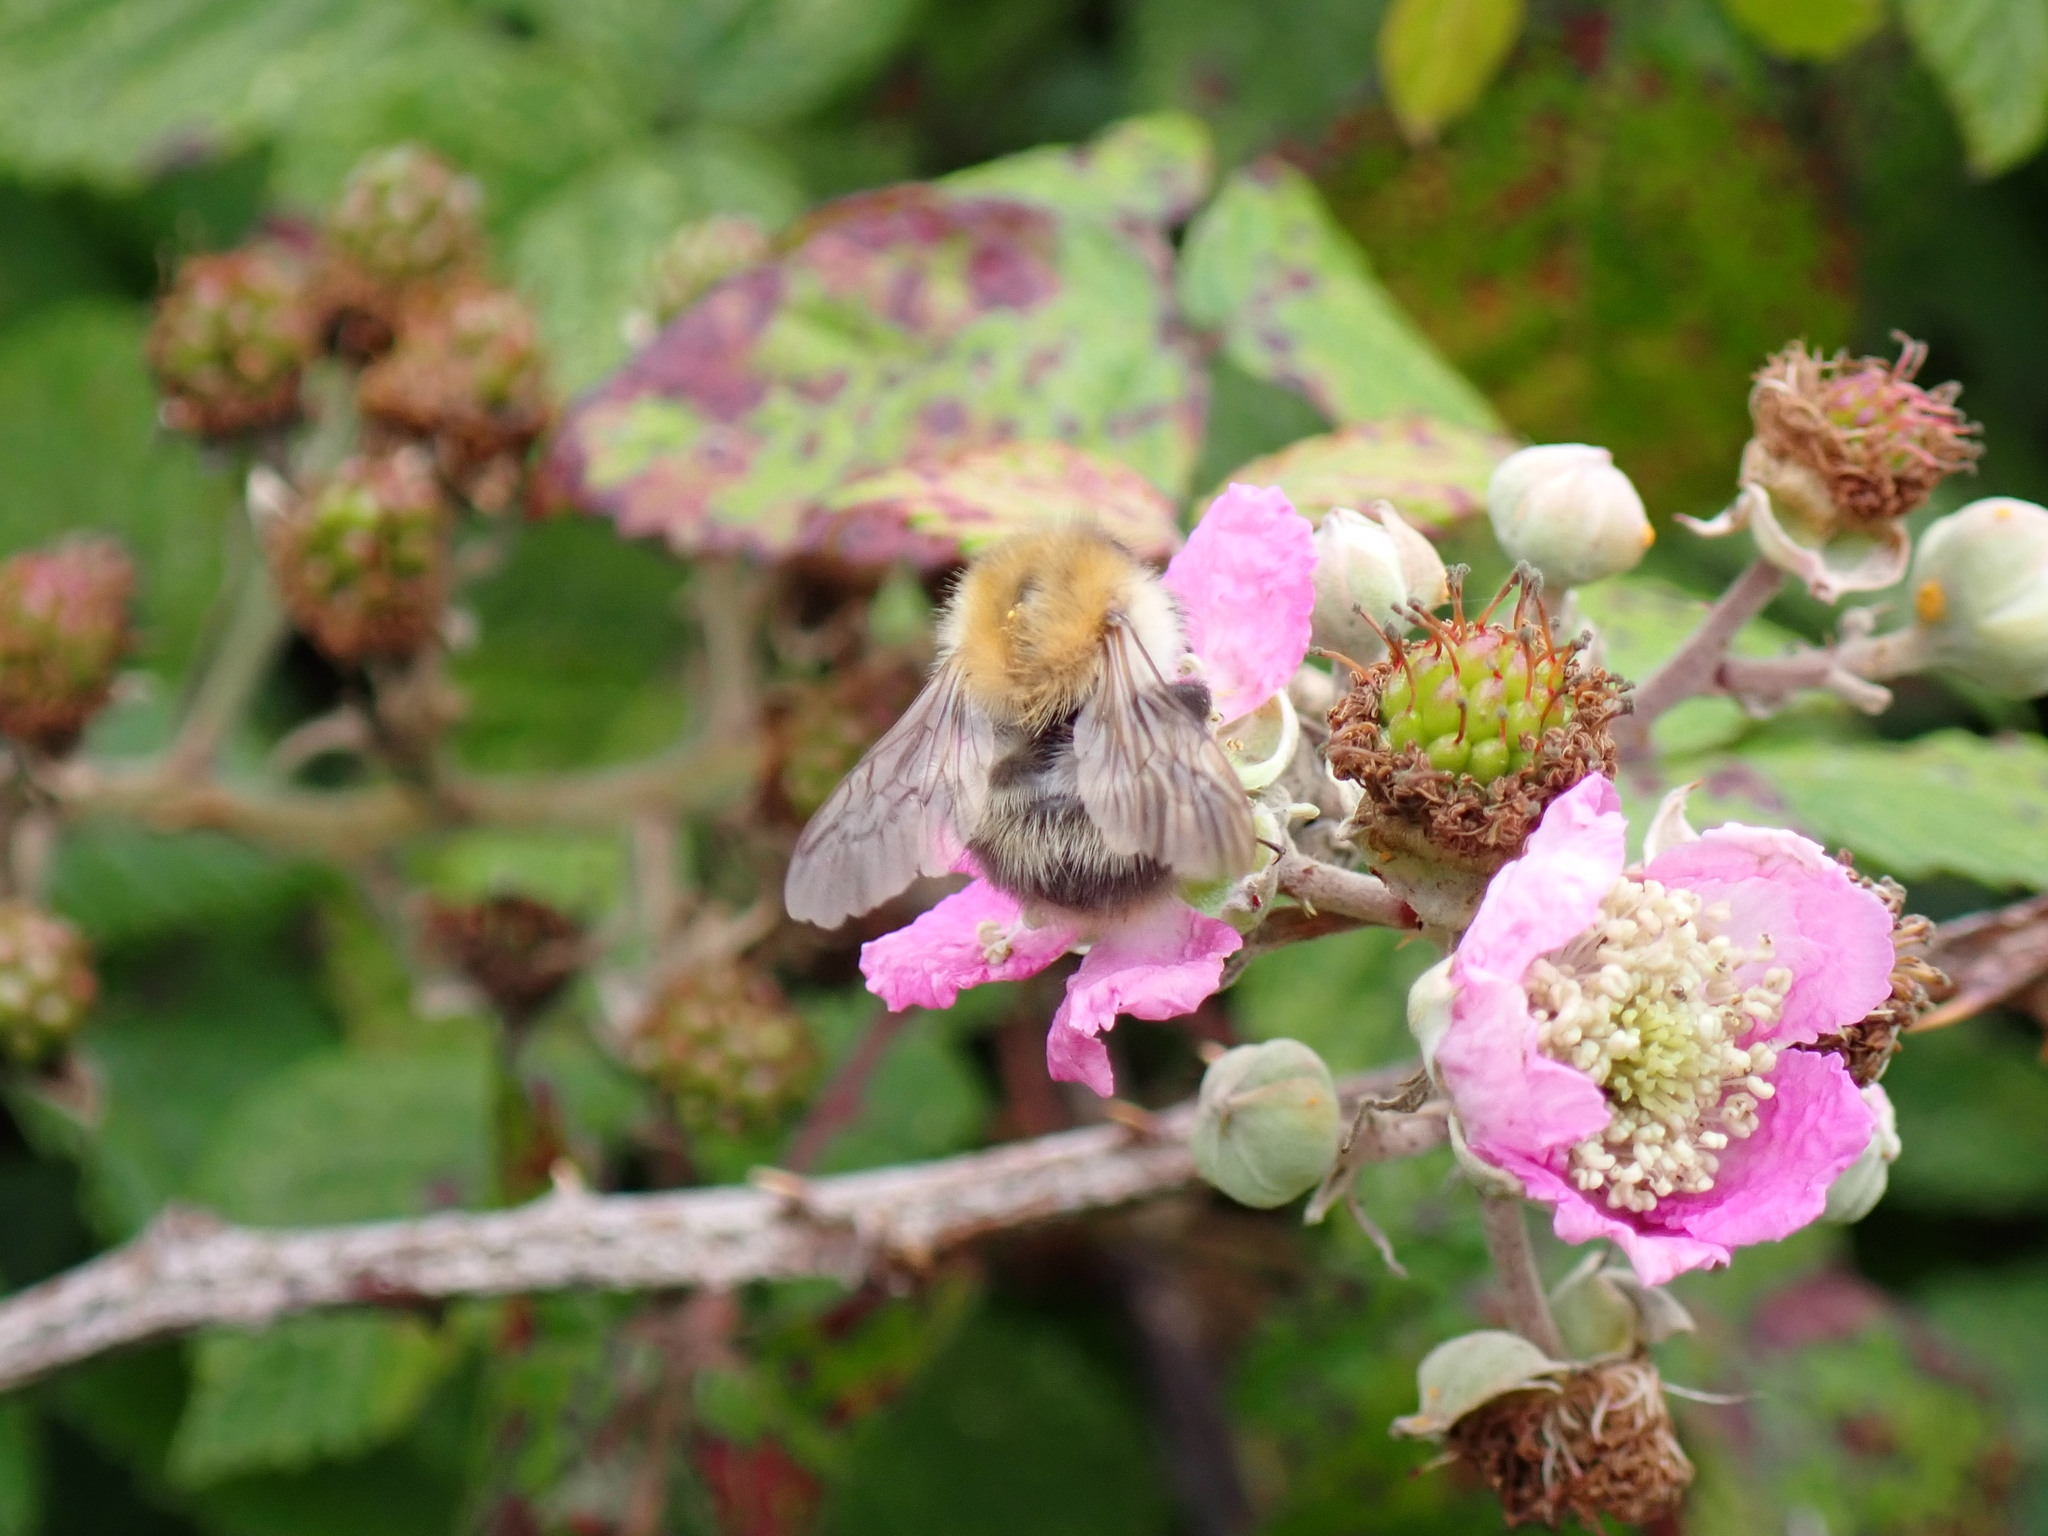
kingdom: Animalia
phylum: Arthropoda
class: Insecta
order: Hymenoptera
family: Apidae
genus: Bombus
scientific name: Bombus pascuorum
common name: Common carder bee
